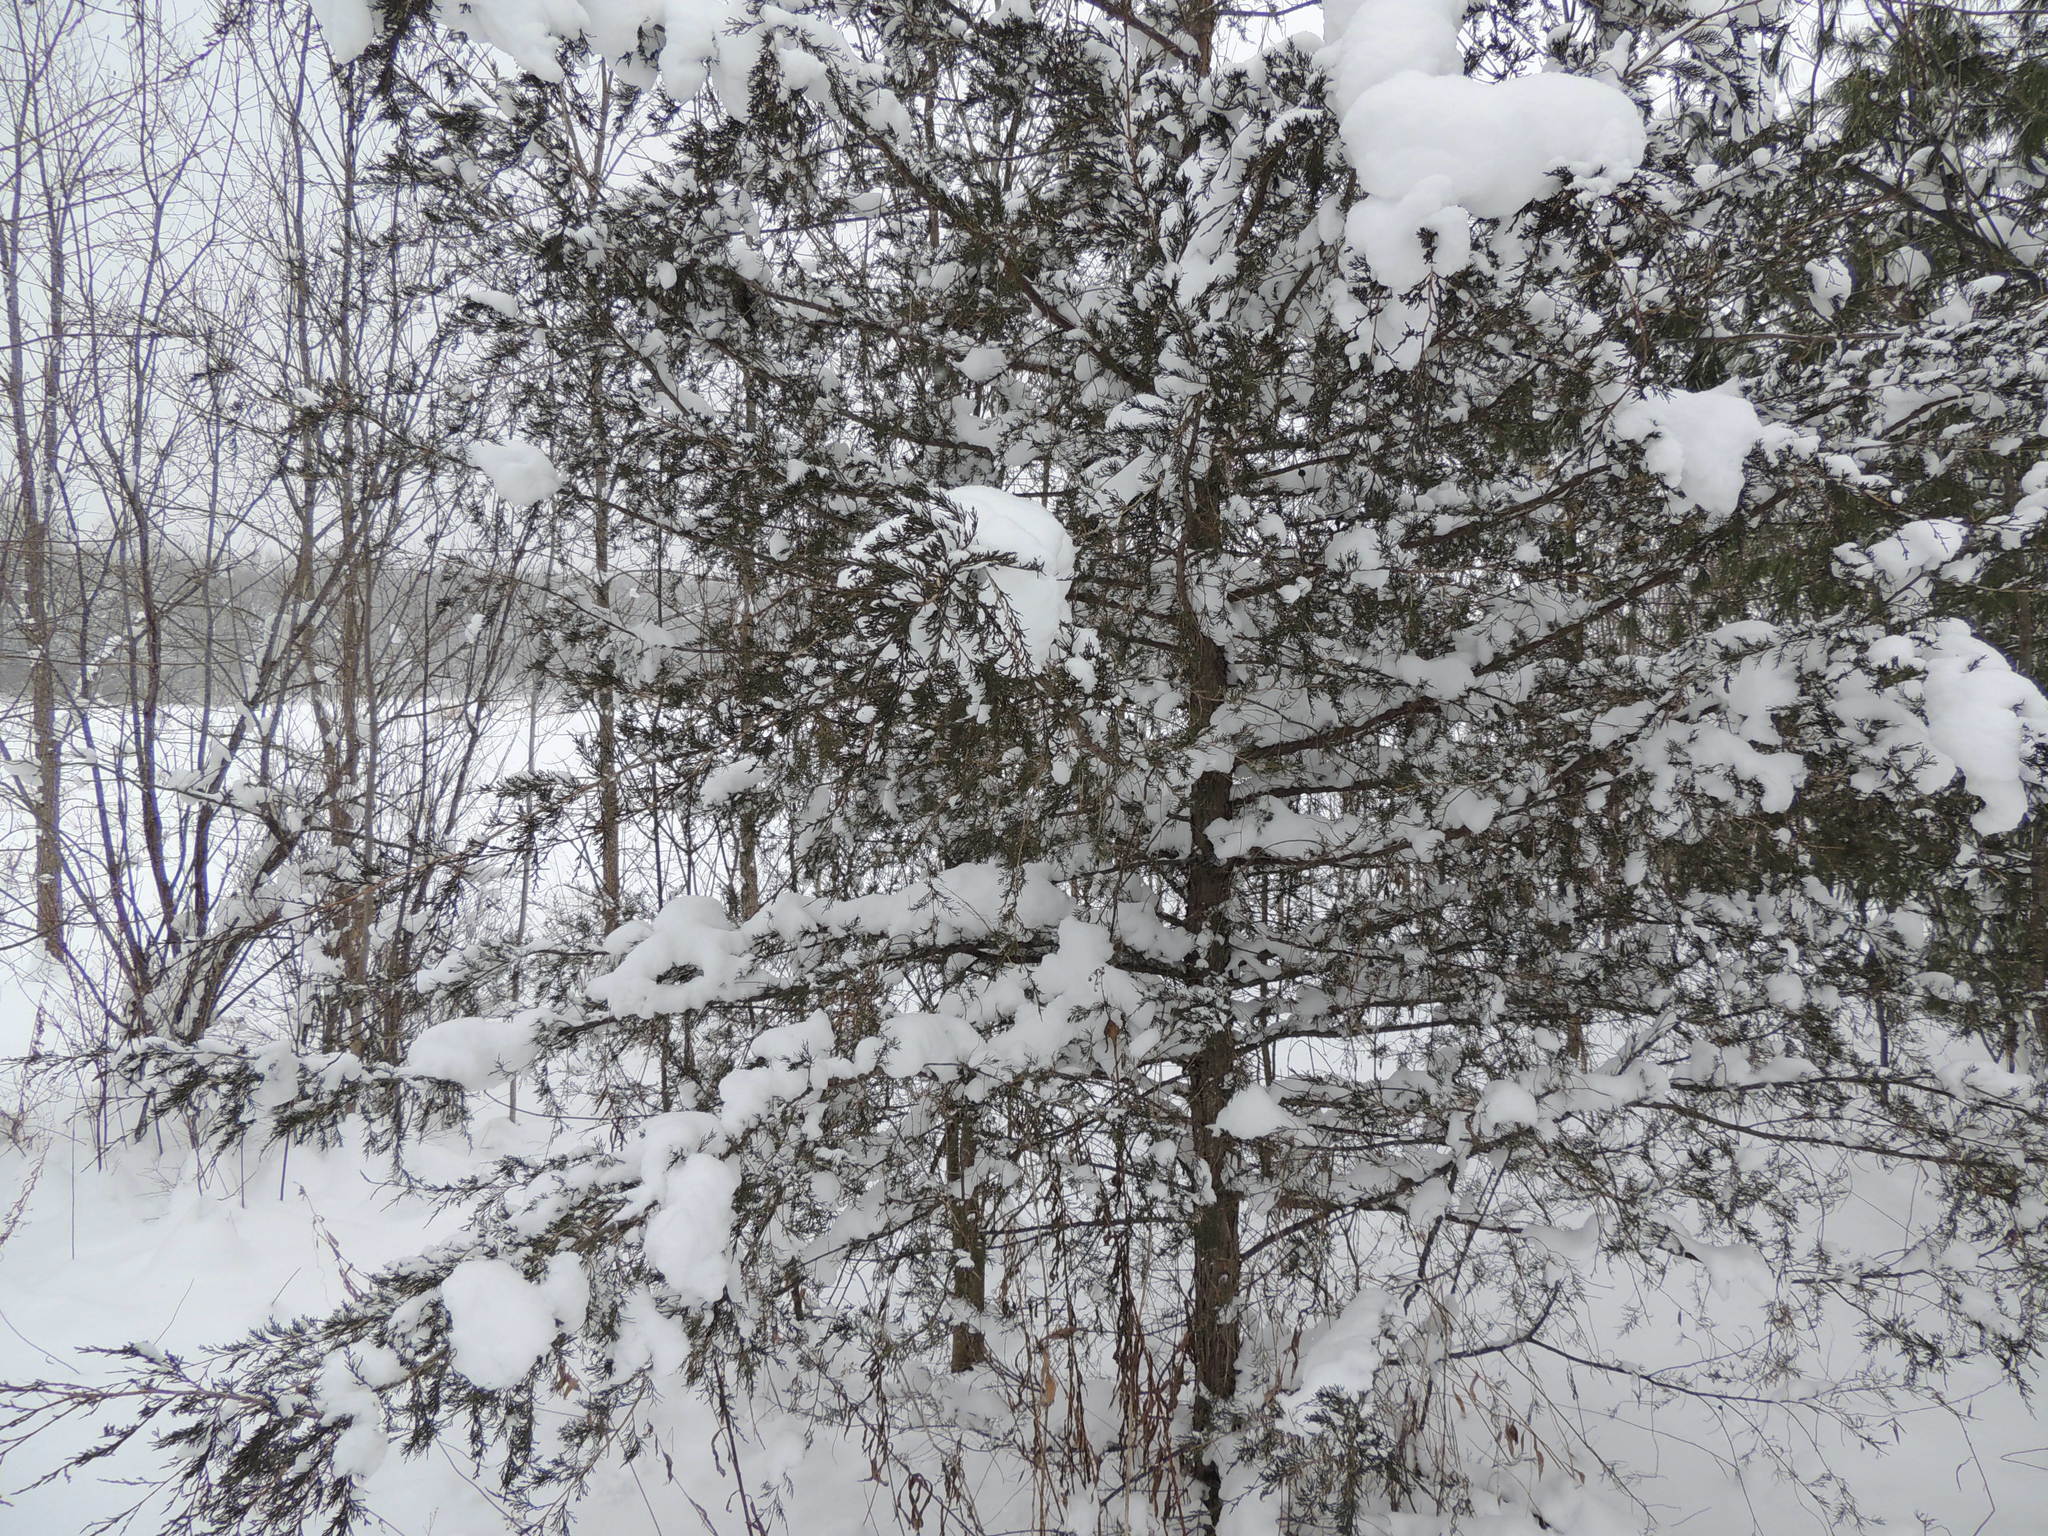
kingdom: Plantae
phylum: Tracheophyta
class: Pinopsida
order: Pinales
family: Cupressaceae
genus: Juniperus
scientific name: Juniperus virginiana
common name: Red juniper
